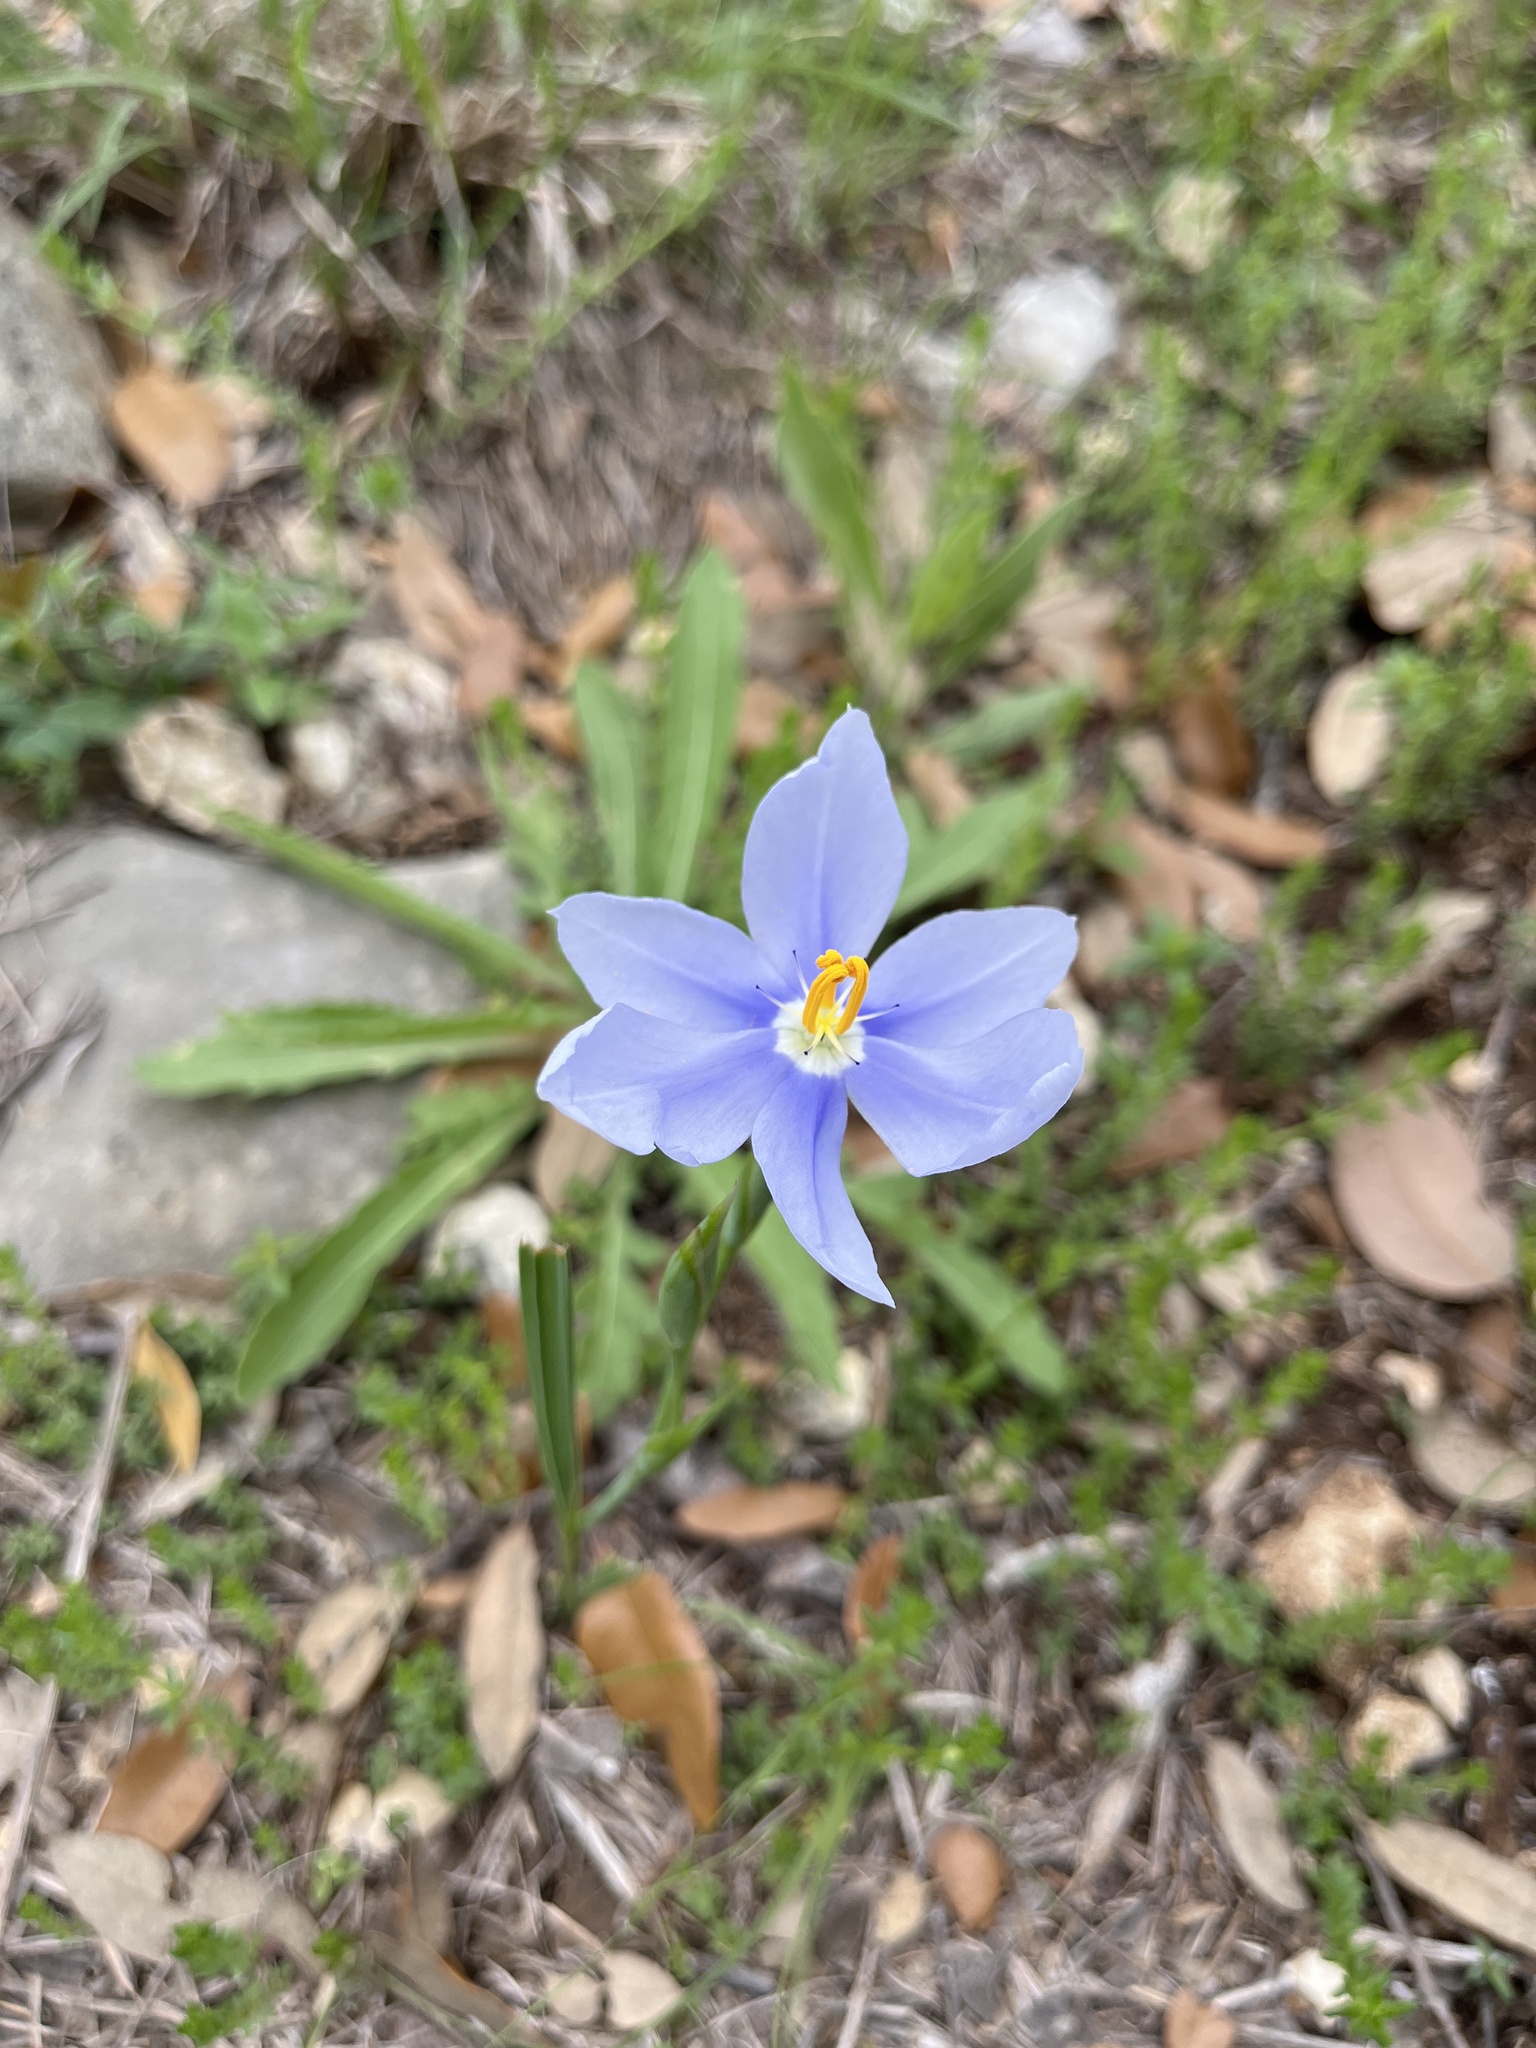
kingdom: Plantae
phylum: Tracheophyta
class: Liliopsida
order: Asparagales
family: Iridaceae
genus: Nemastylis
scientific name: Nemastylis geminiflora
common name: Prairie celestial
